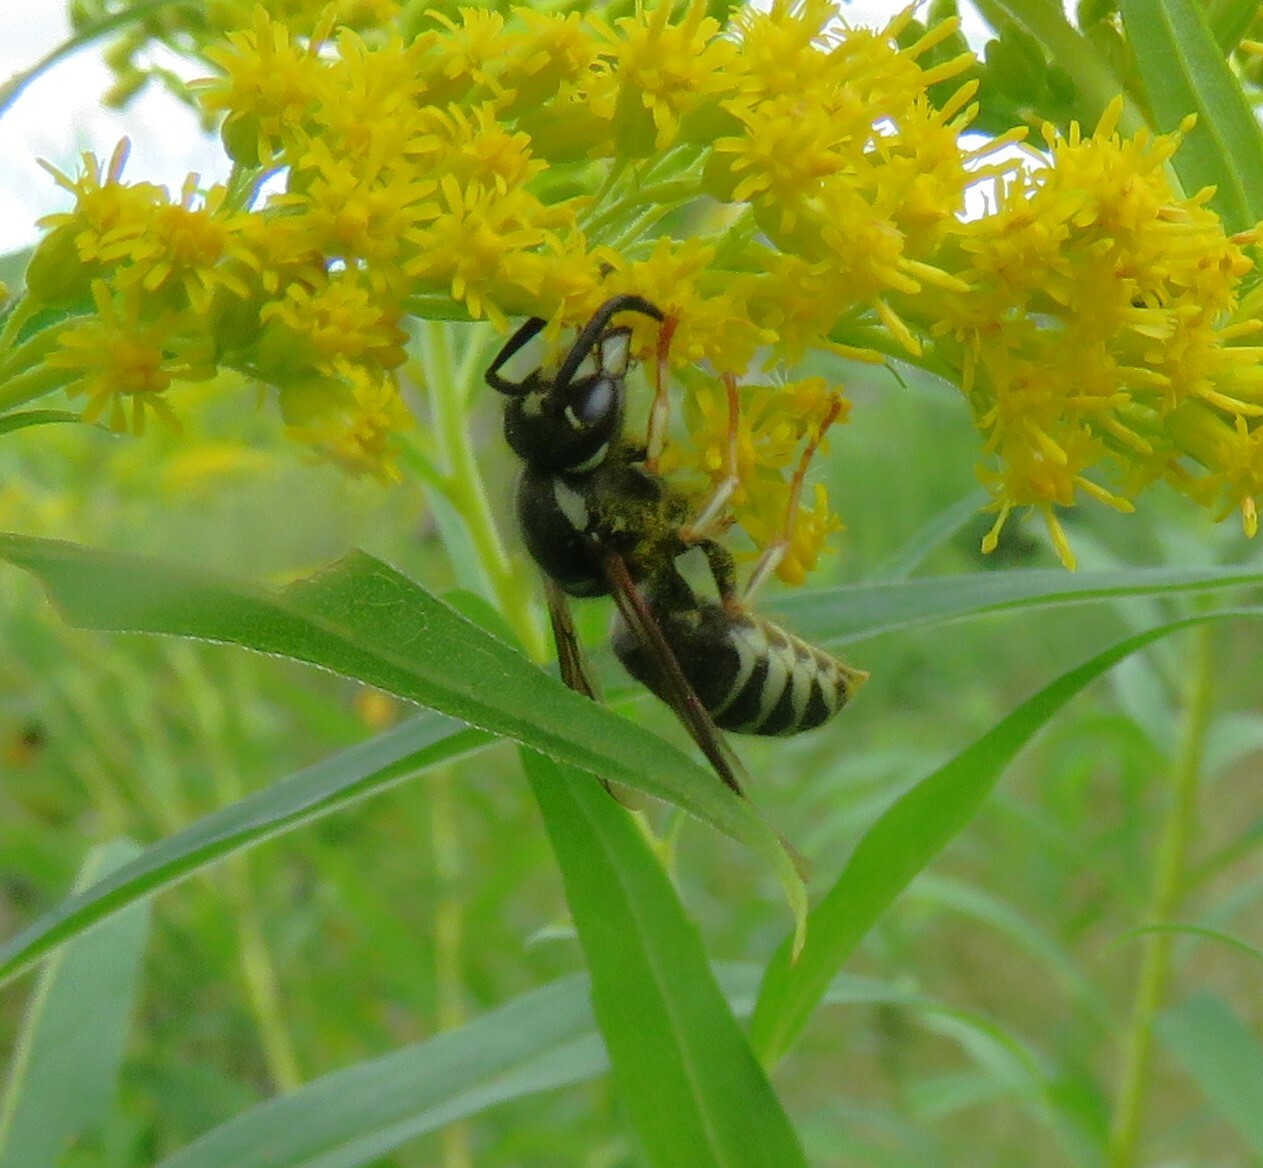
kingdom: Animalia
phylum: Arthropoda
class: Insecta
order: Hymenoptera
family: Vespidae
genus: Vespula
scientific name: Vespula consobrina
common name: Blackjacket
